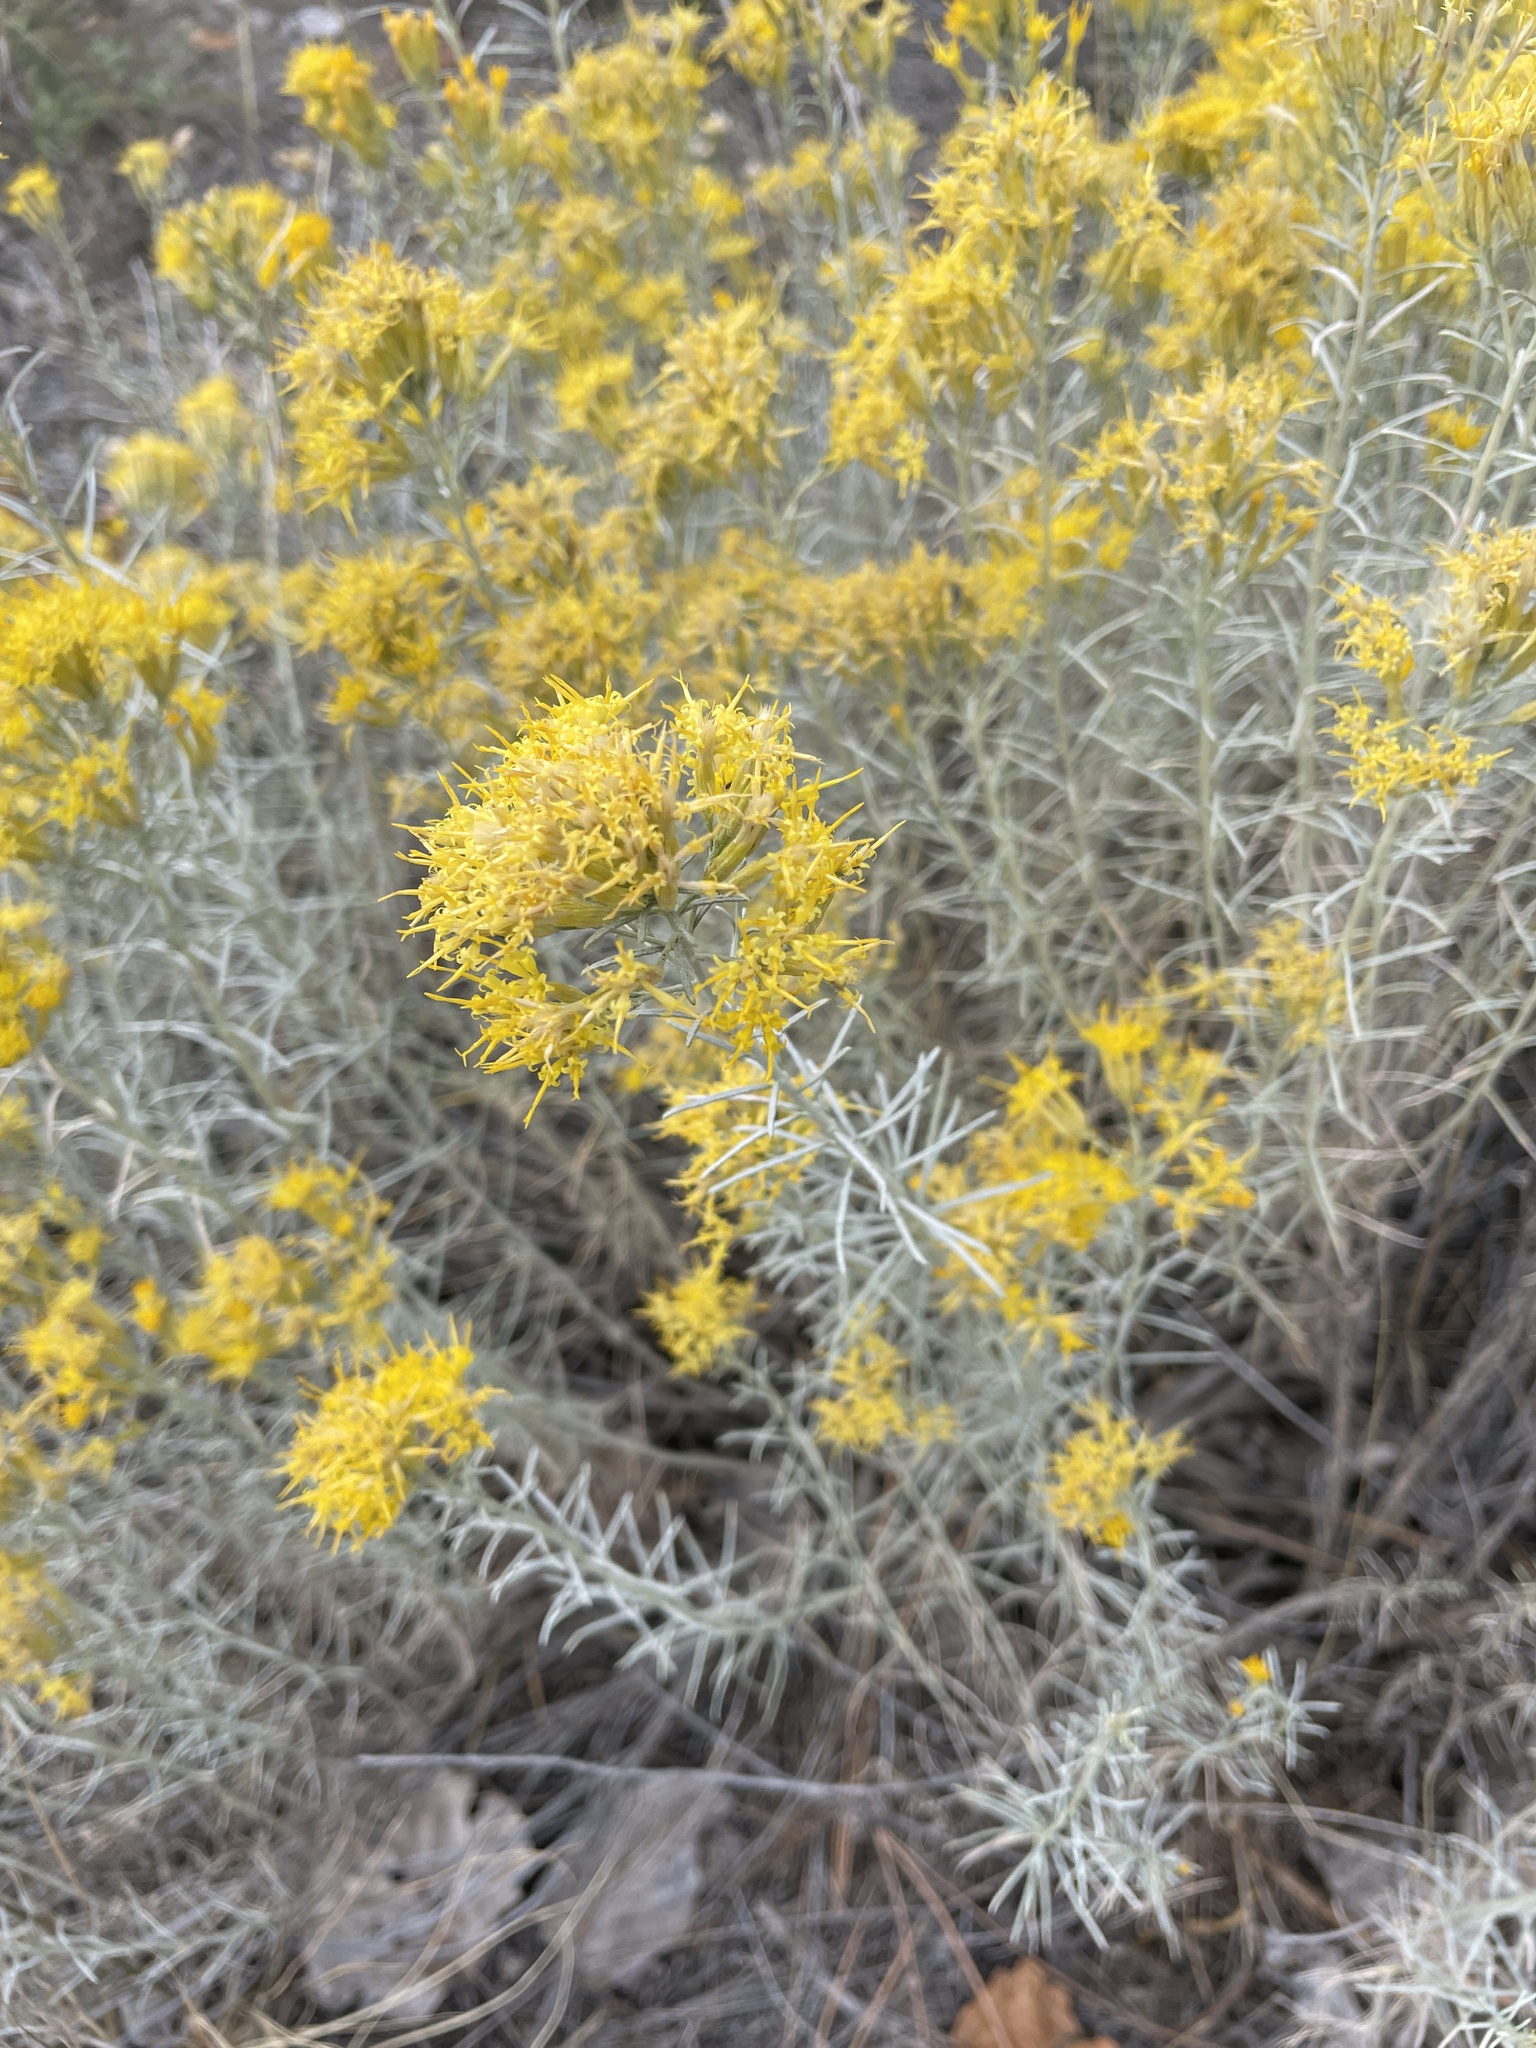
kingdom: Plantae
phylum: Tracheophyta
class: Magnoliopsida
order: Asterales
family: Asteraceae
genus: Ericameria
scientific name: Ericameria nauseosa
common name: Rubber rabbitbrush
